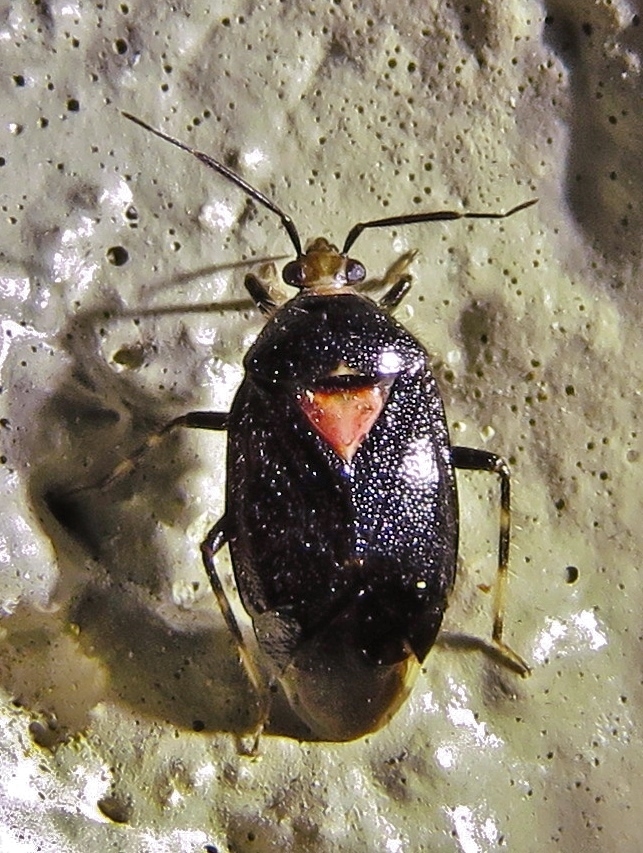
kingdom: Animalia
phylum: Arthropoda
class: Insecta
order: Hemiptera
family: Miridae
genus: Deraeocoris
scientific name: Deraeocoris sayi
